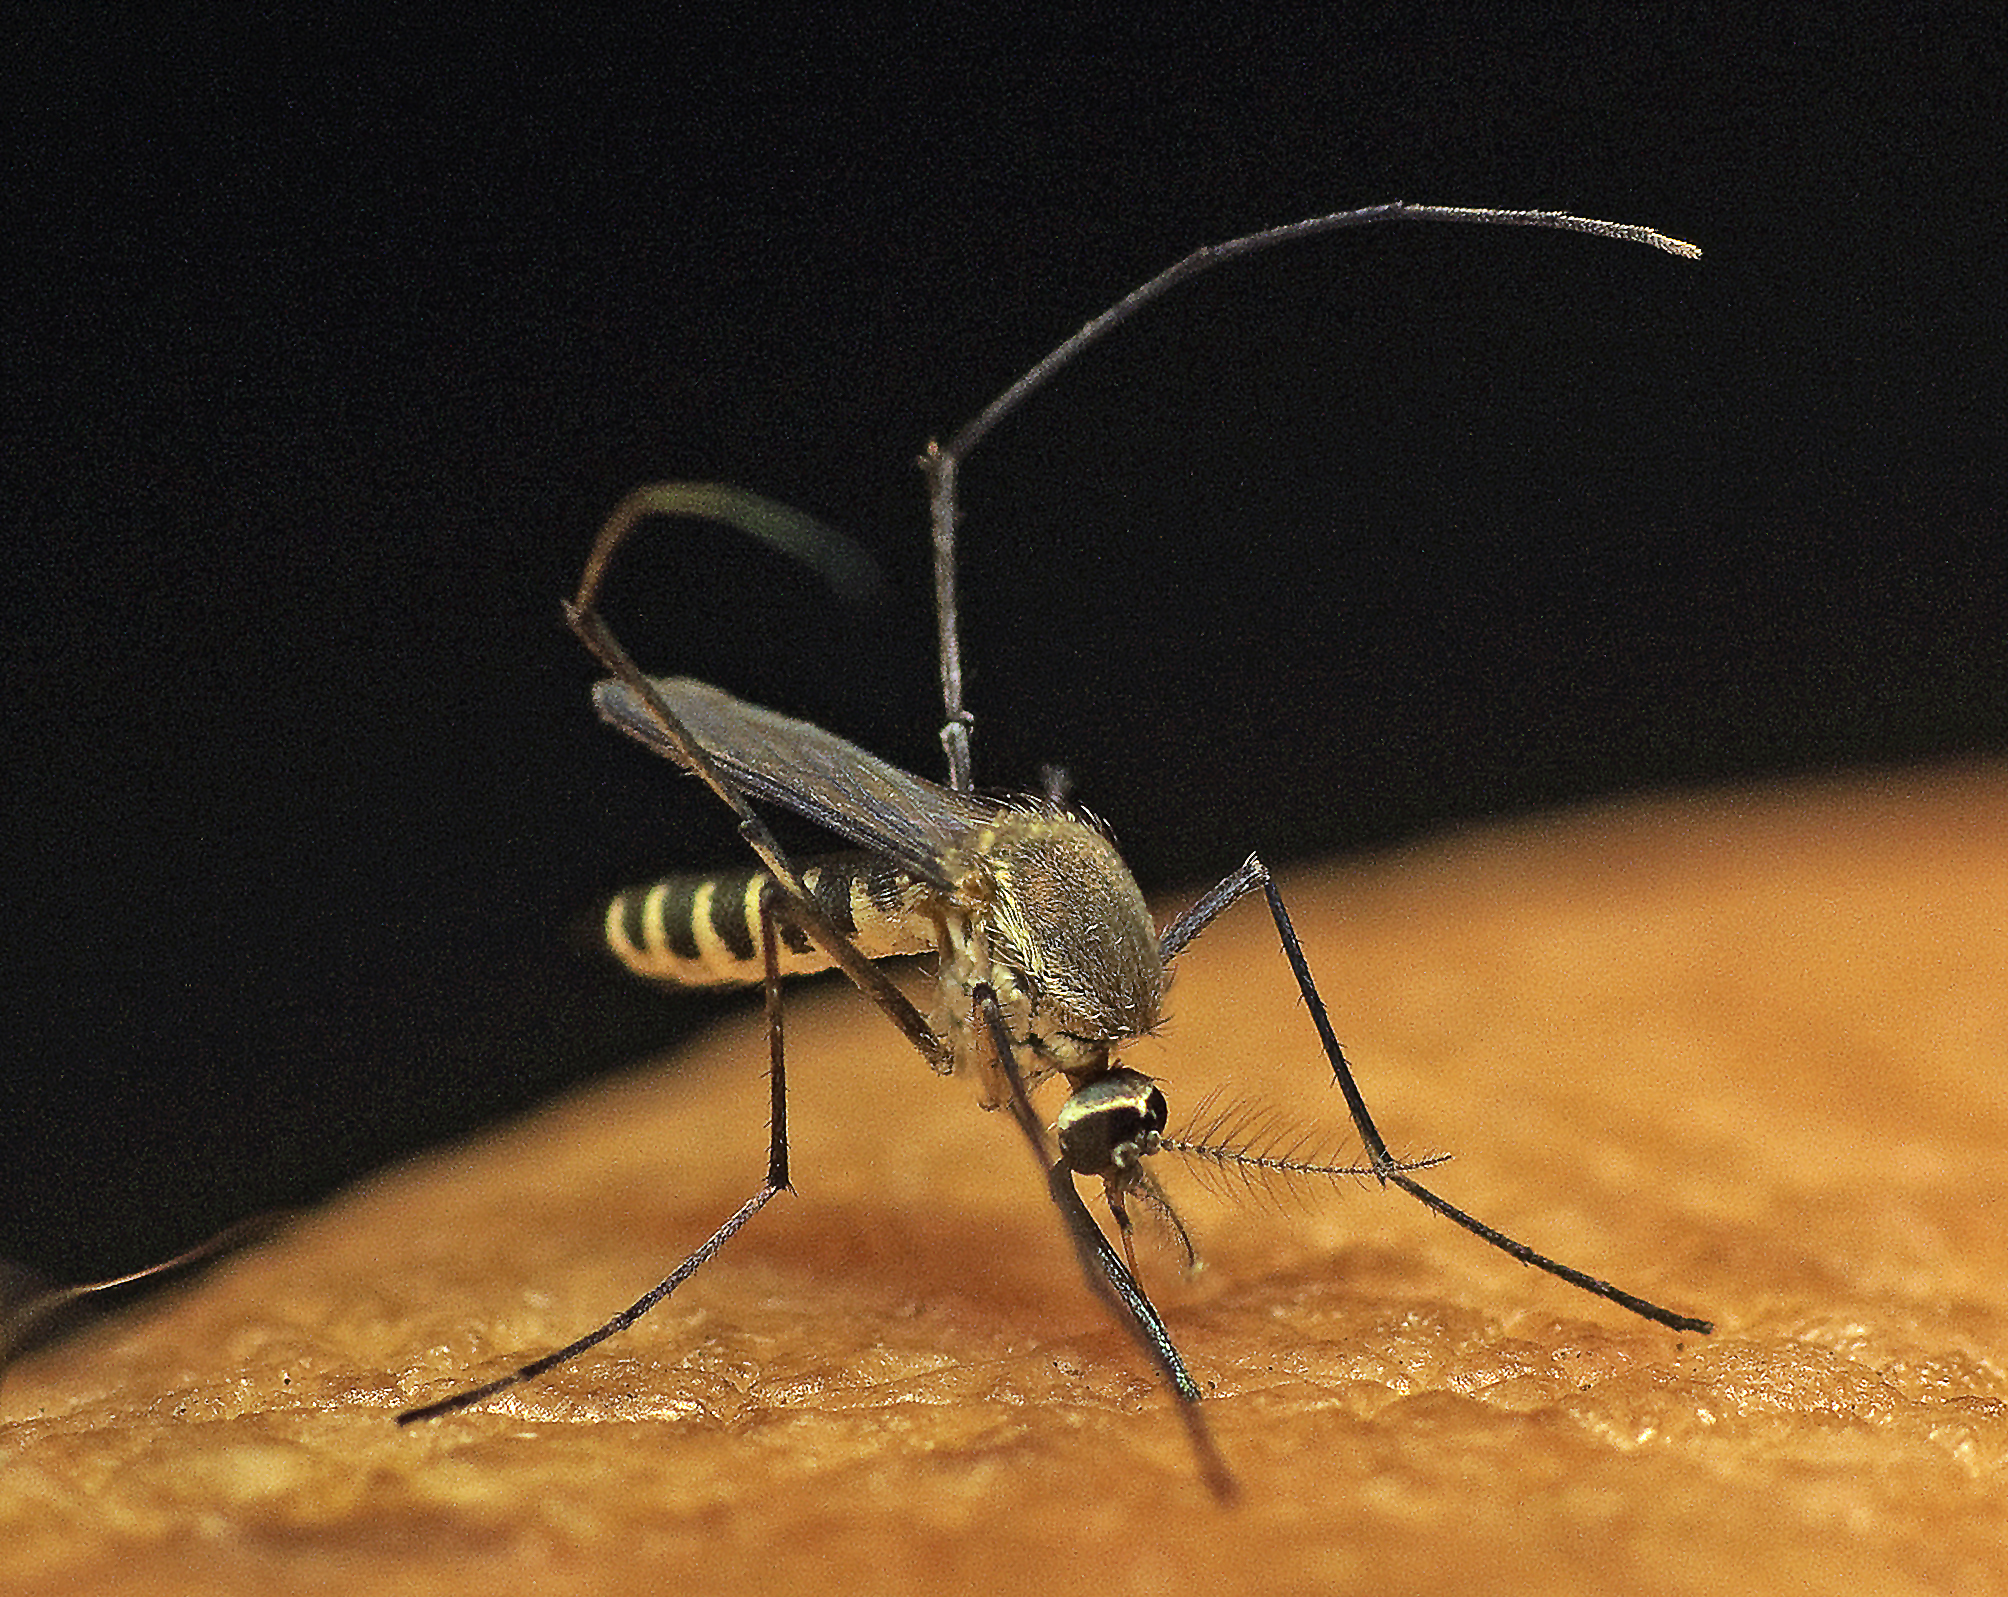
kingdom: Animalia
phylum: Arthropoda
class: Insecta
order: Diptera
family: Culicidae
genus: Tripteroides
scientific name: Tripteroides atripes
